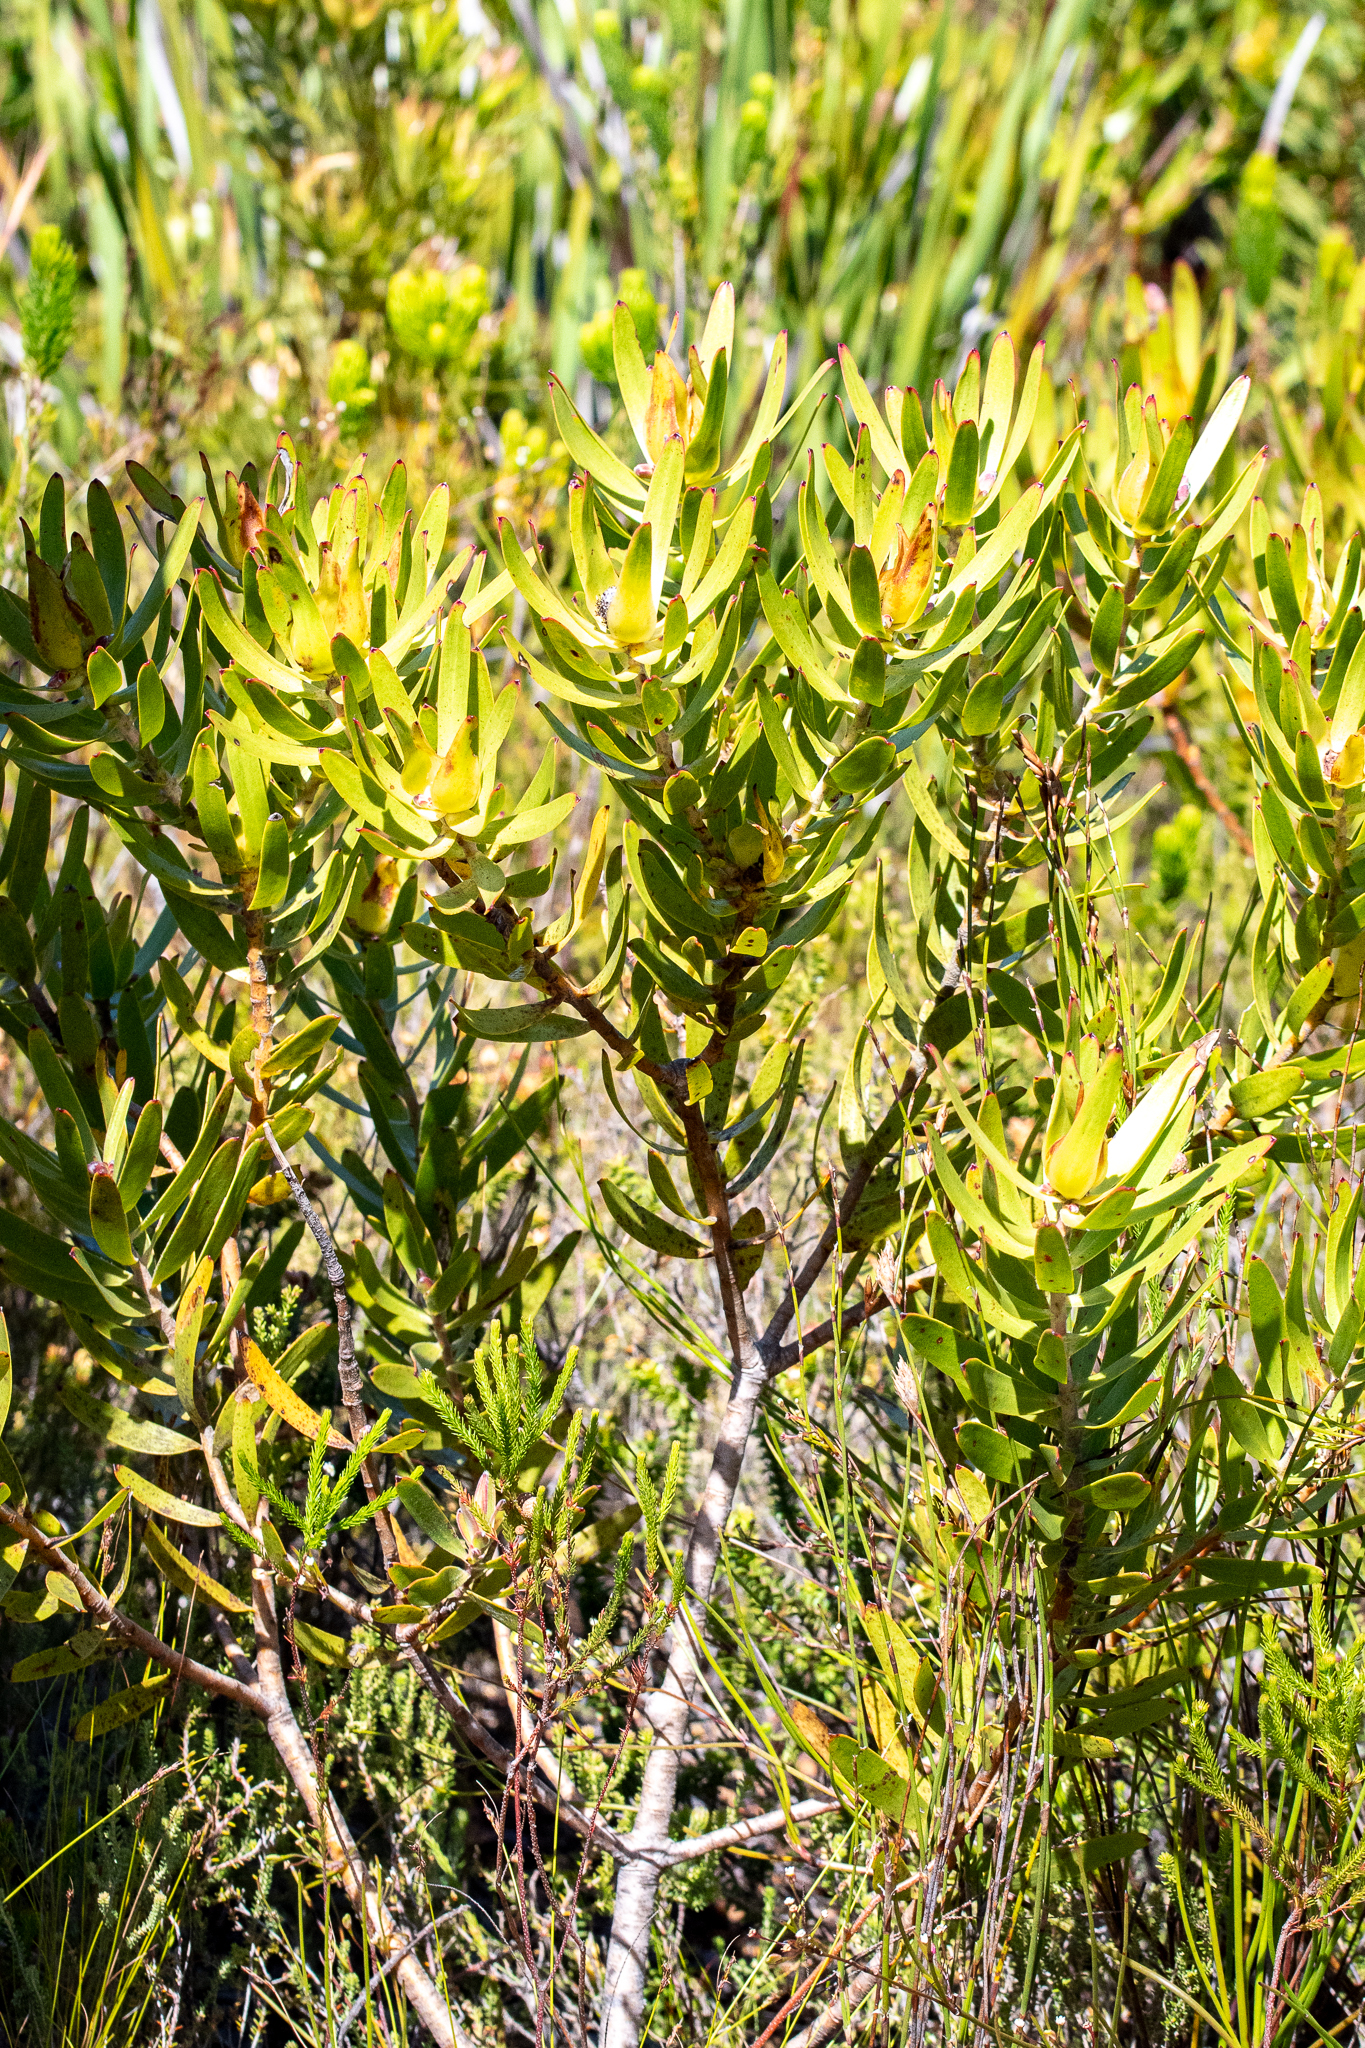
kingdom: Plantae
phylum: Tracheophyta
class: Magnoliopsida
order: Proteales
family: Proteaceae
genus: Leucadendron
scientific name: Leucadendron laureolum
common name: Golden sunshinebush
